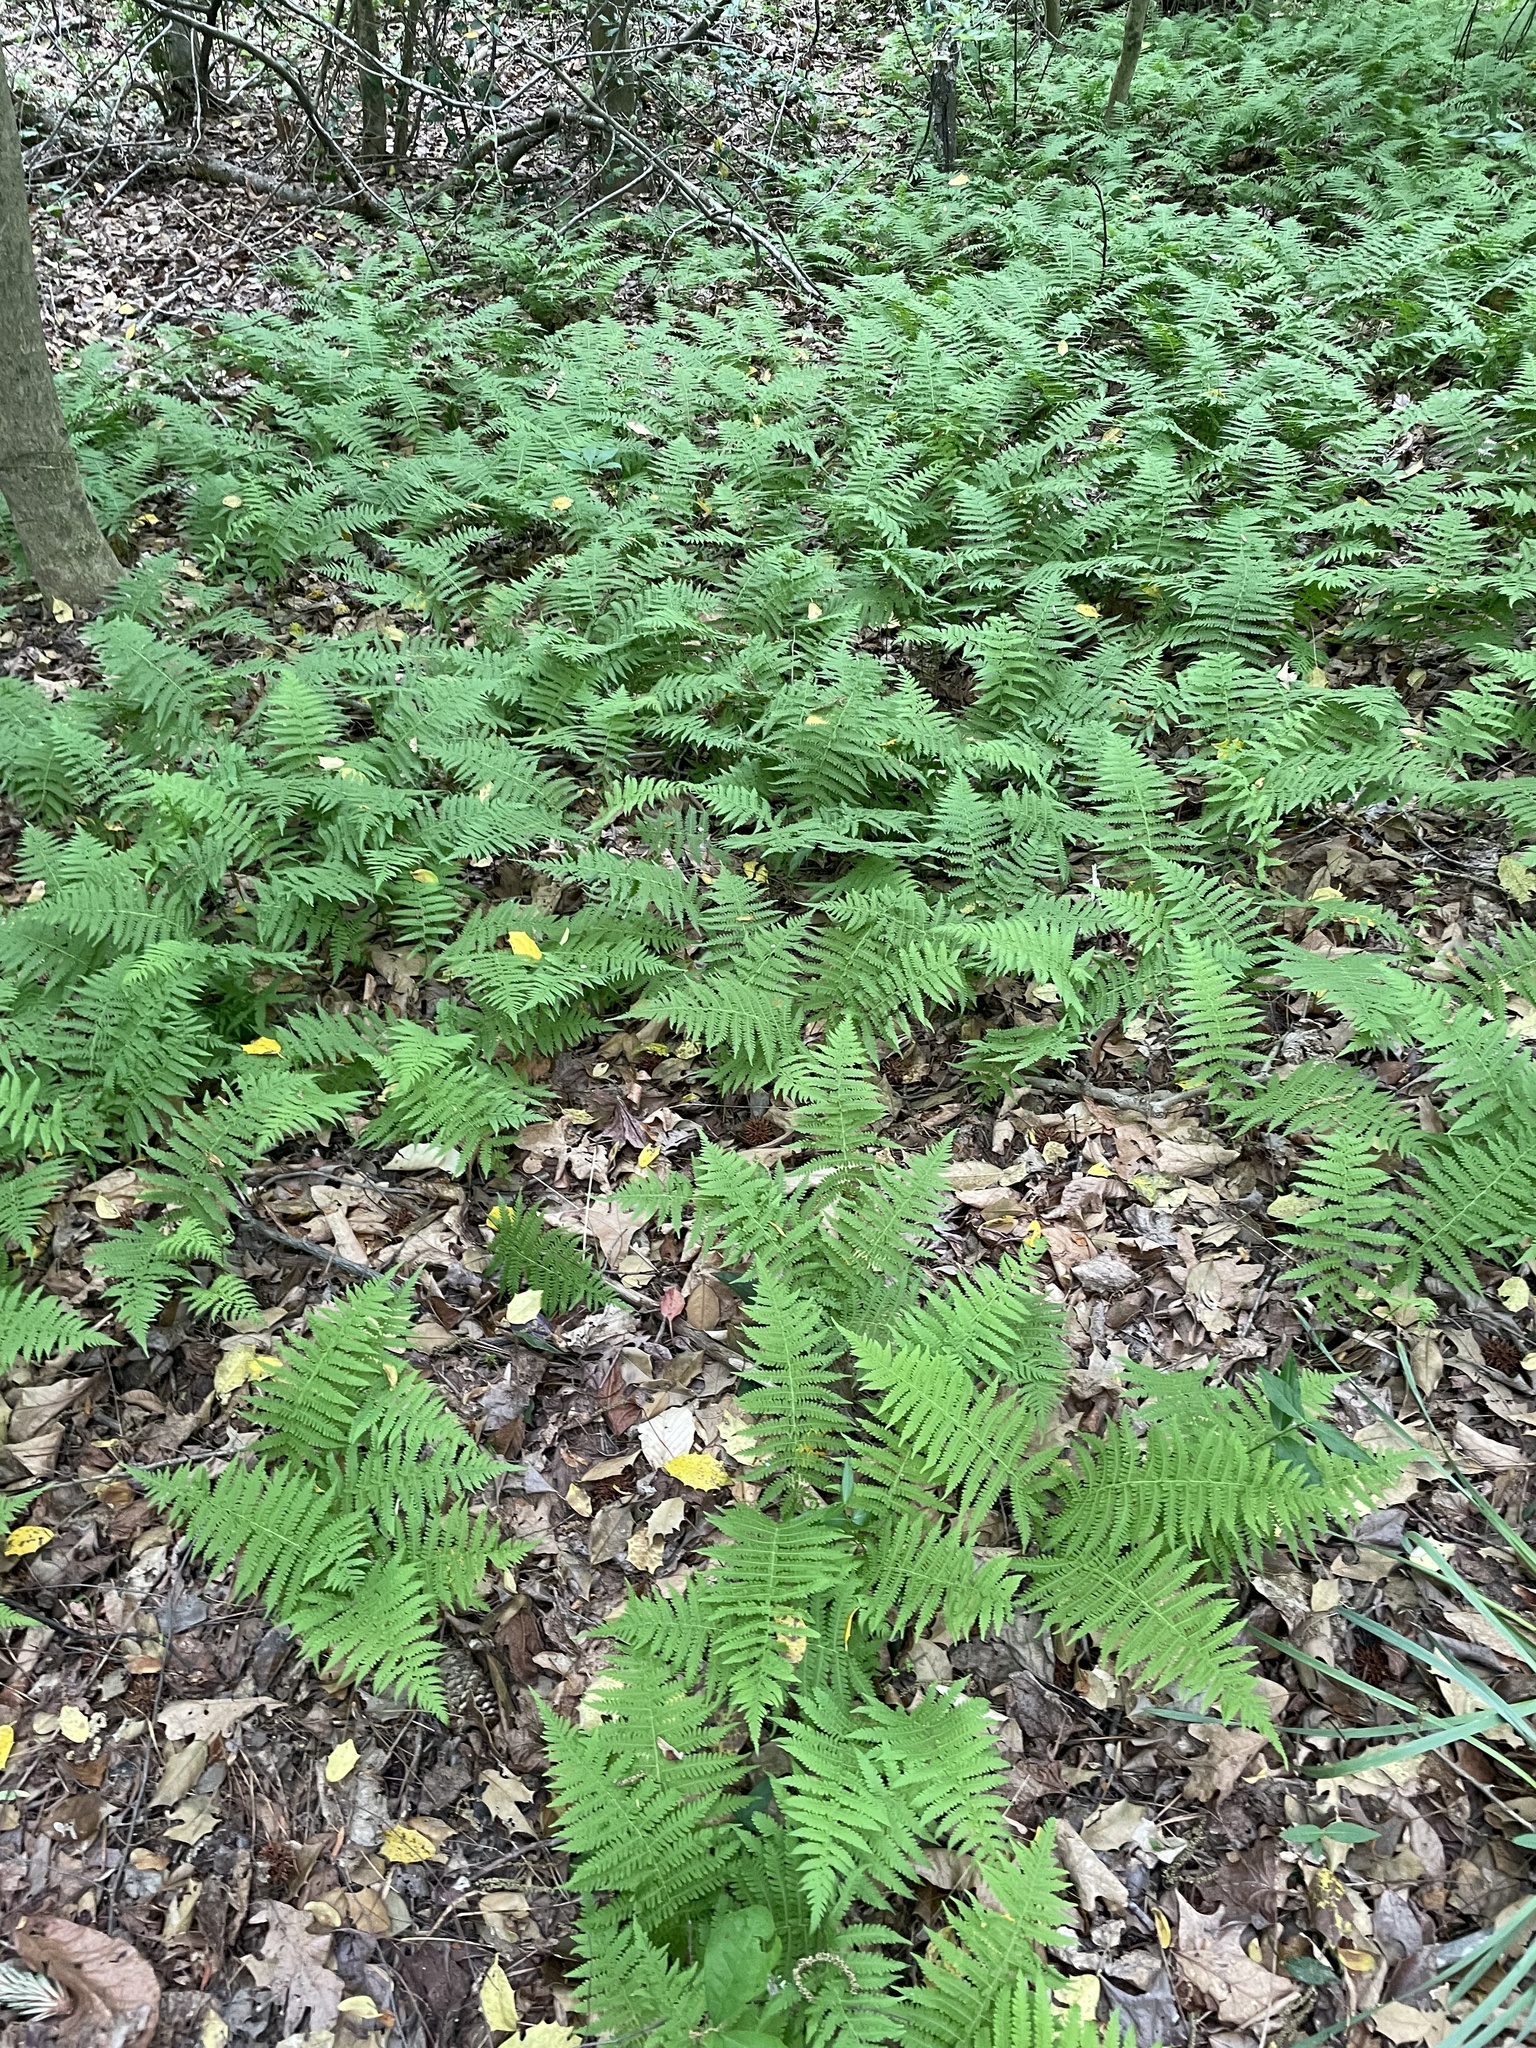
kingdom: Plantae
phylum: Tracheophyta
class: Polypodiopsida
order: Polypodiales
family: Thelypteridaceae
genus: Amauropelta
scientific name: Amauropelta noveboracensis
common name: New york fern
